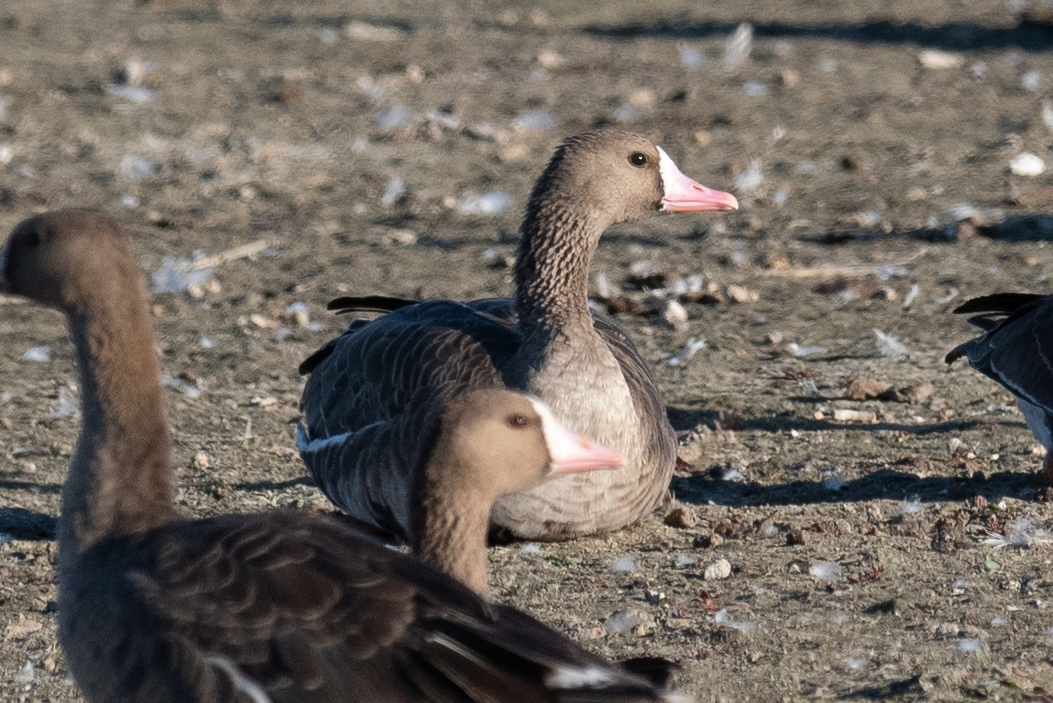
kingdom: Animalia
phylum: Chordata
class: Aves
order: Anseriformes
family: Anatidae
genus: Anser
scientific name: Anser albifrons
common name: Greater white-fronted goose
